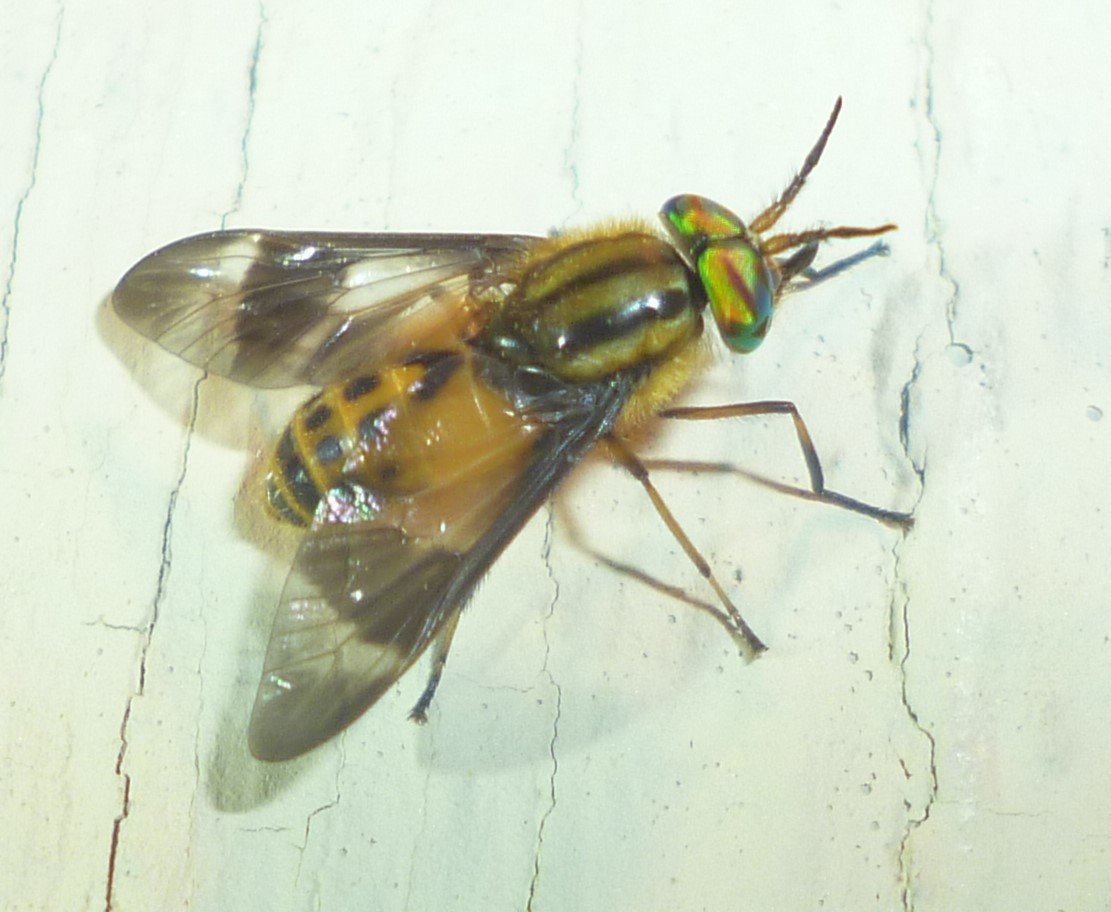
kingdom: Animalia
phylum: Arthropoda
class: Insecta
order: Diptera
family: Tabanidae
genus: Chrysops
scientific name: Chrysops geminatus
